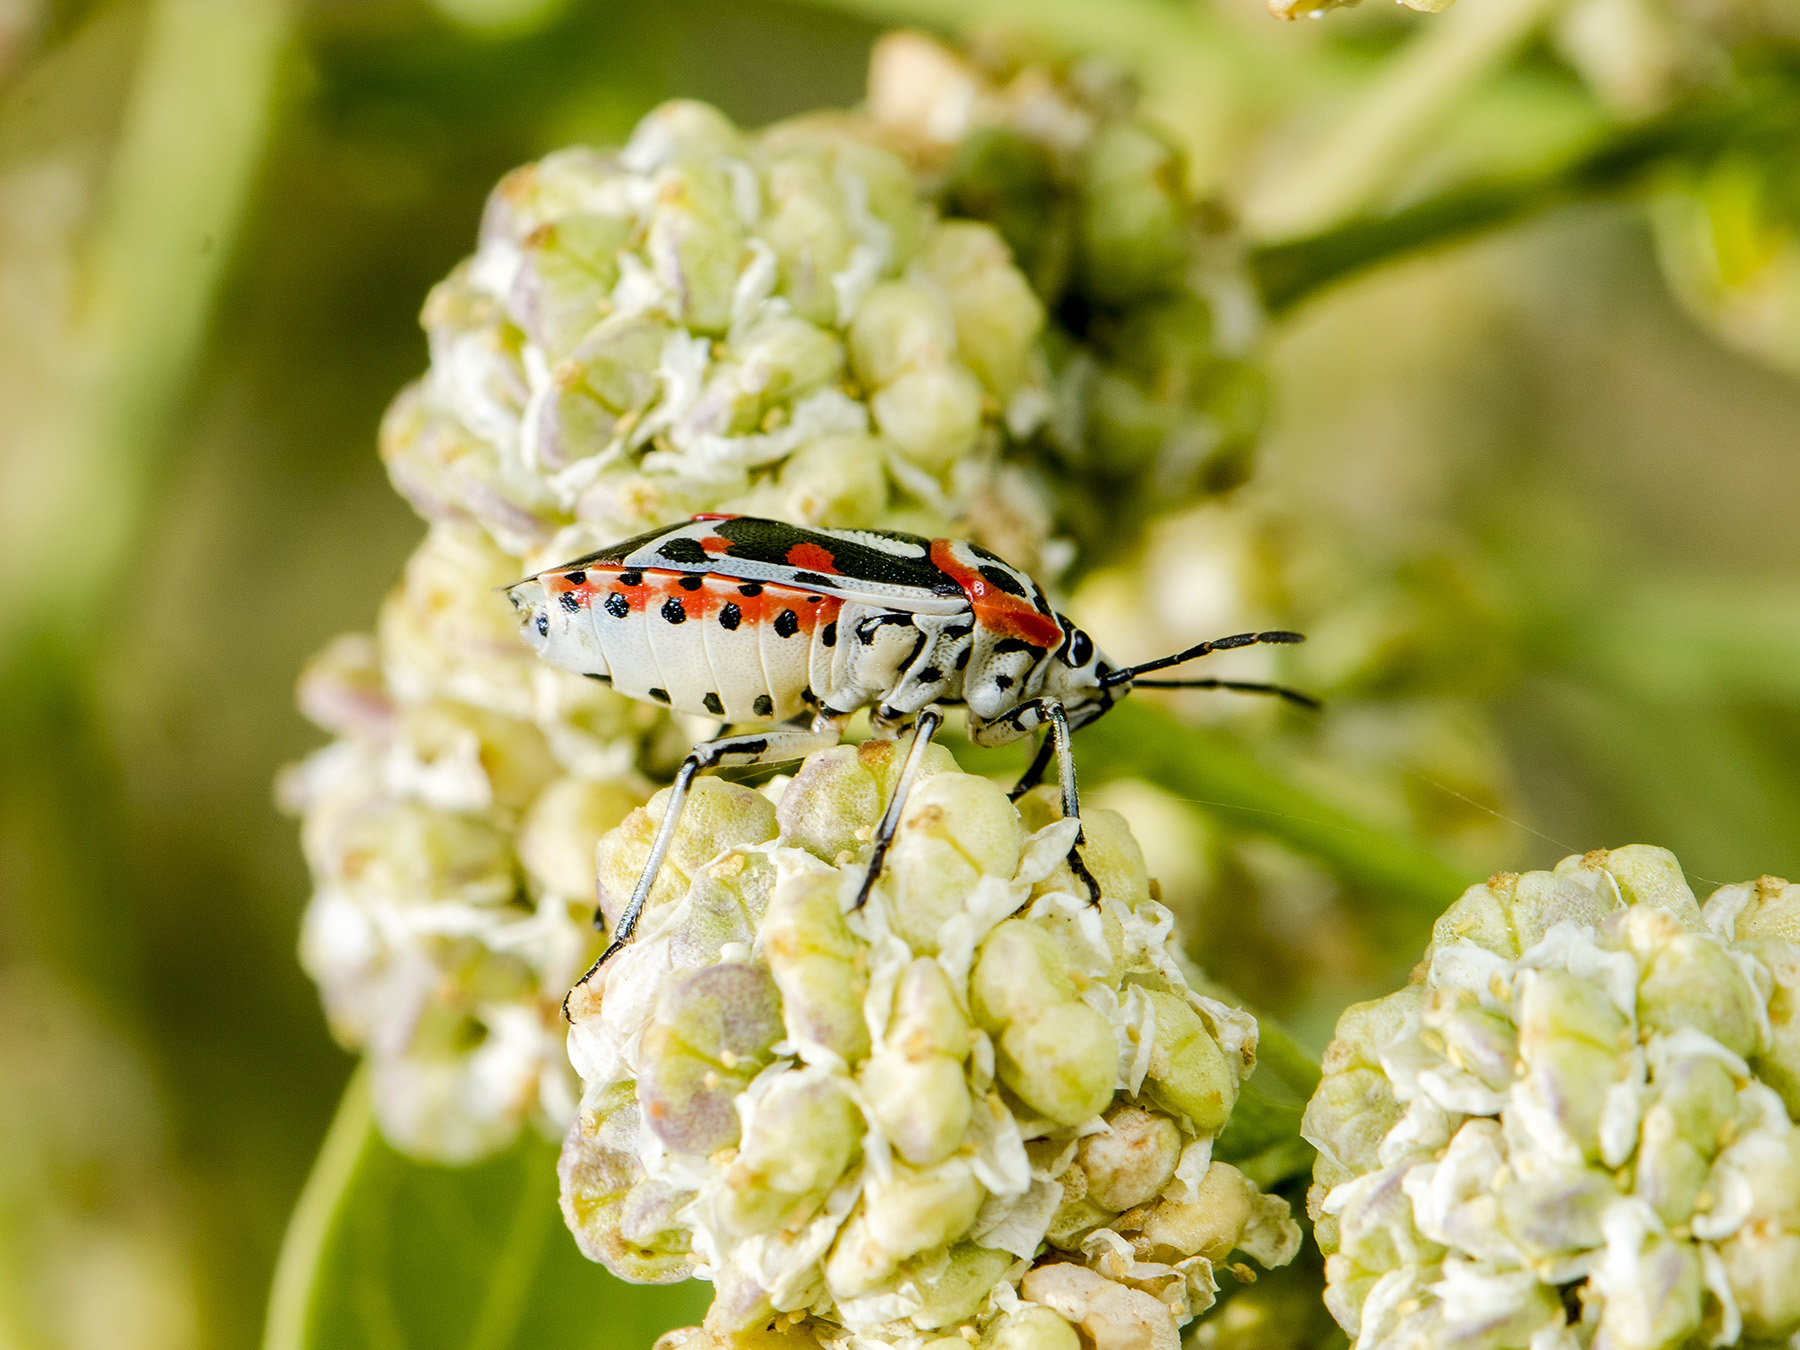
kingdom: Animalia
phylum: Arthropoda
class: Insecta
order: Hemiptera
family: Pentatomidae
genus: Eurydema
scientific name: Eurydema ornata
